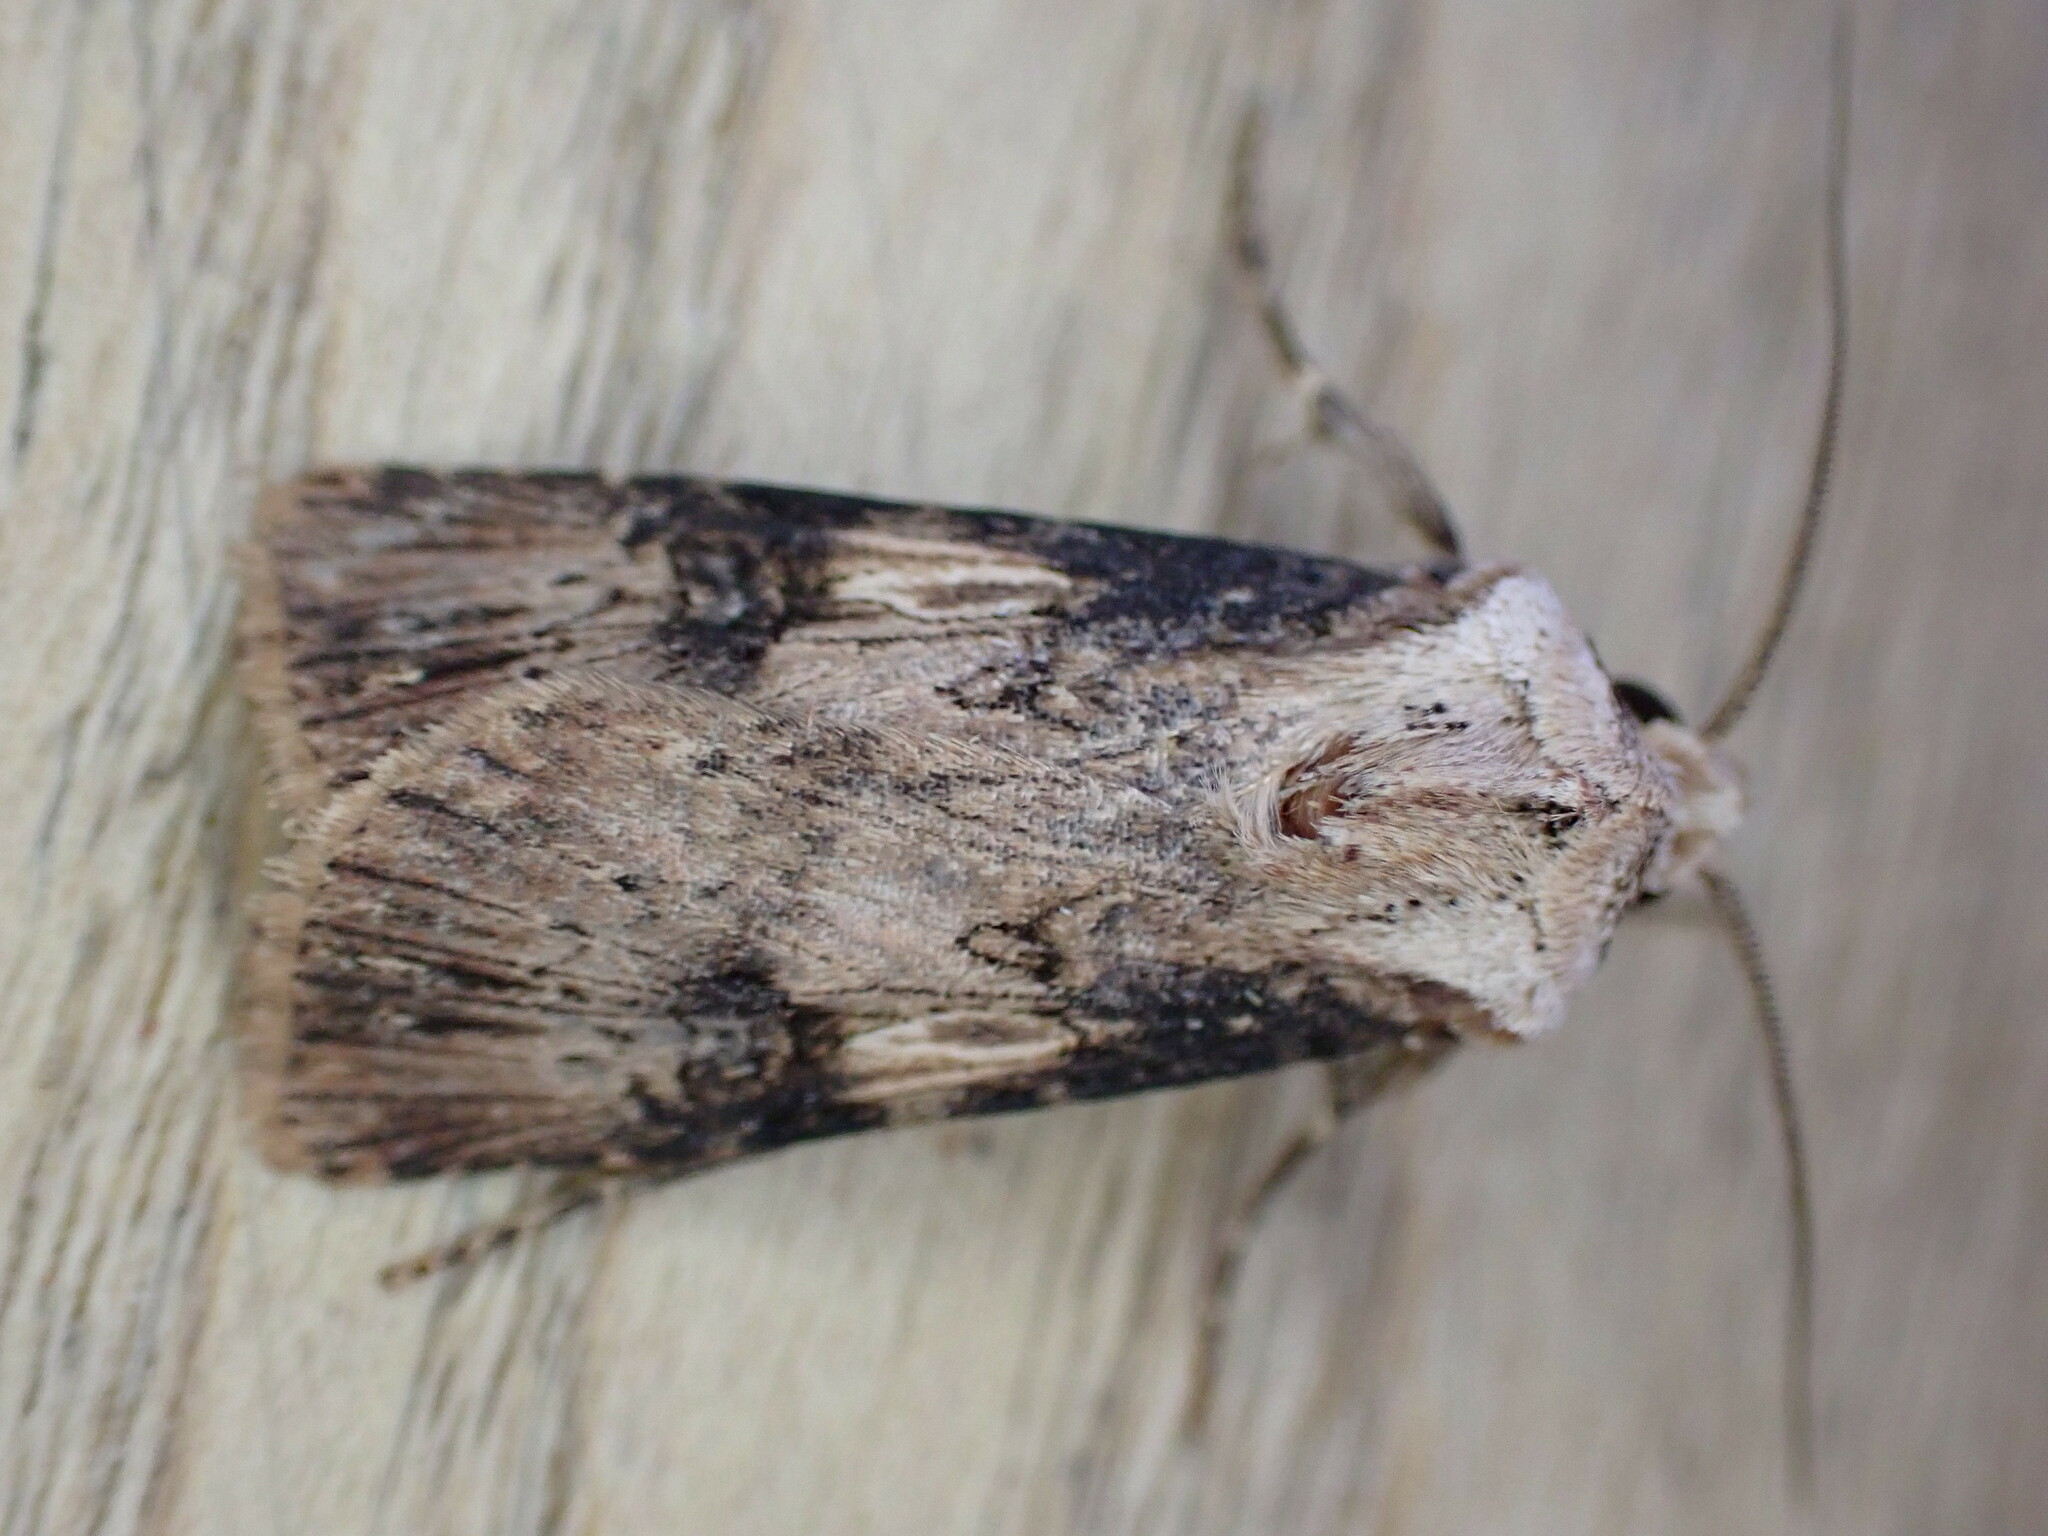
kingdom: Animalia
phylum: Arthropoda
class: Insecta
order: Lepidoptera
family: Noctuidae
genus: Agrotis
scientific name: Agrotis puta
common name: Shuttle-shaped dart
